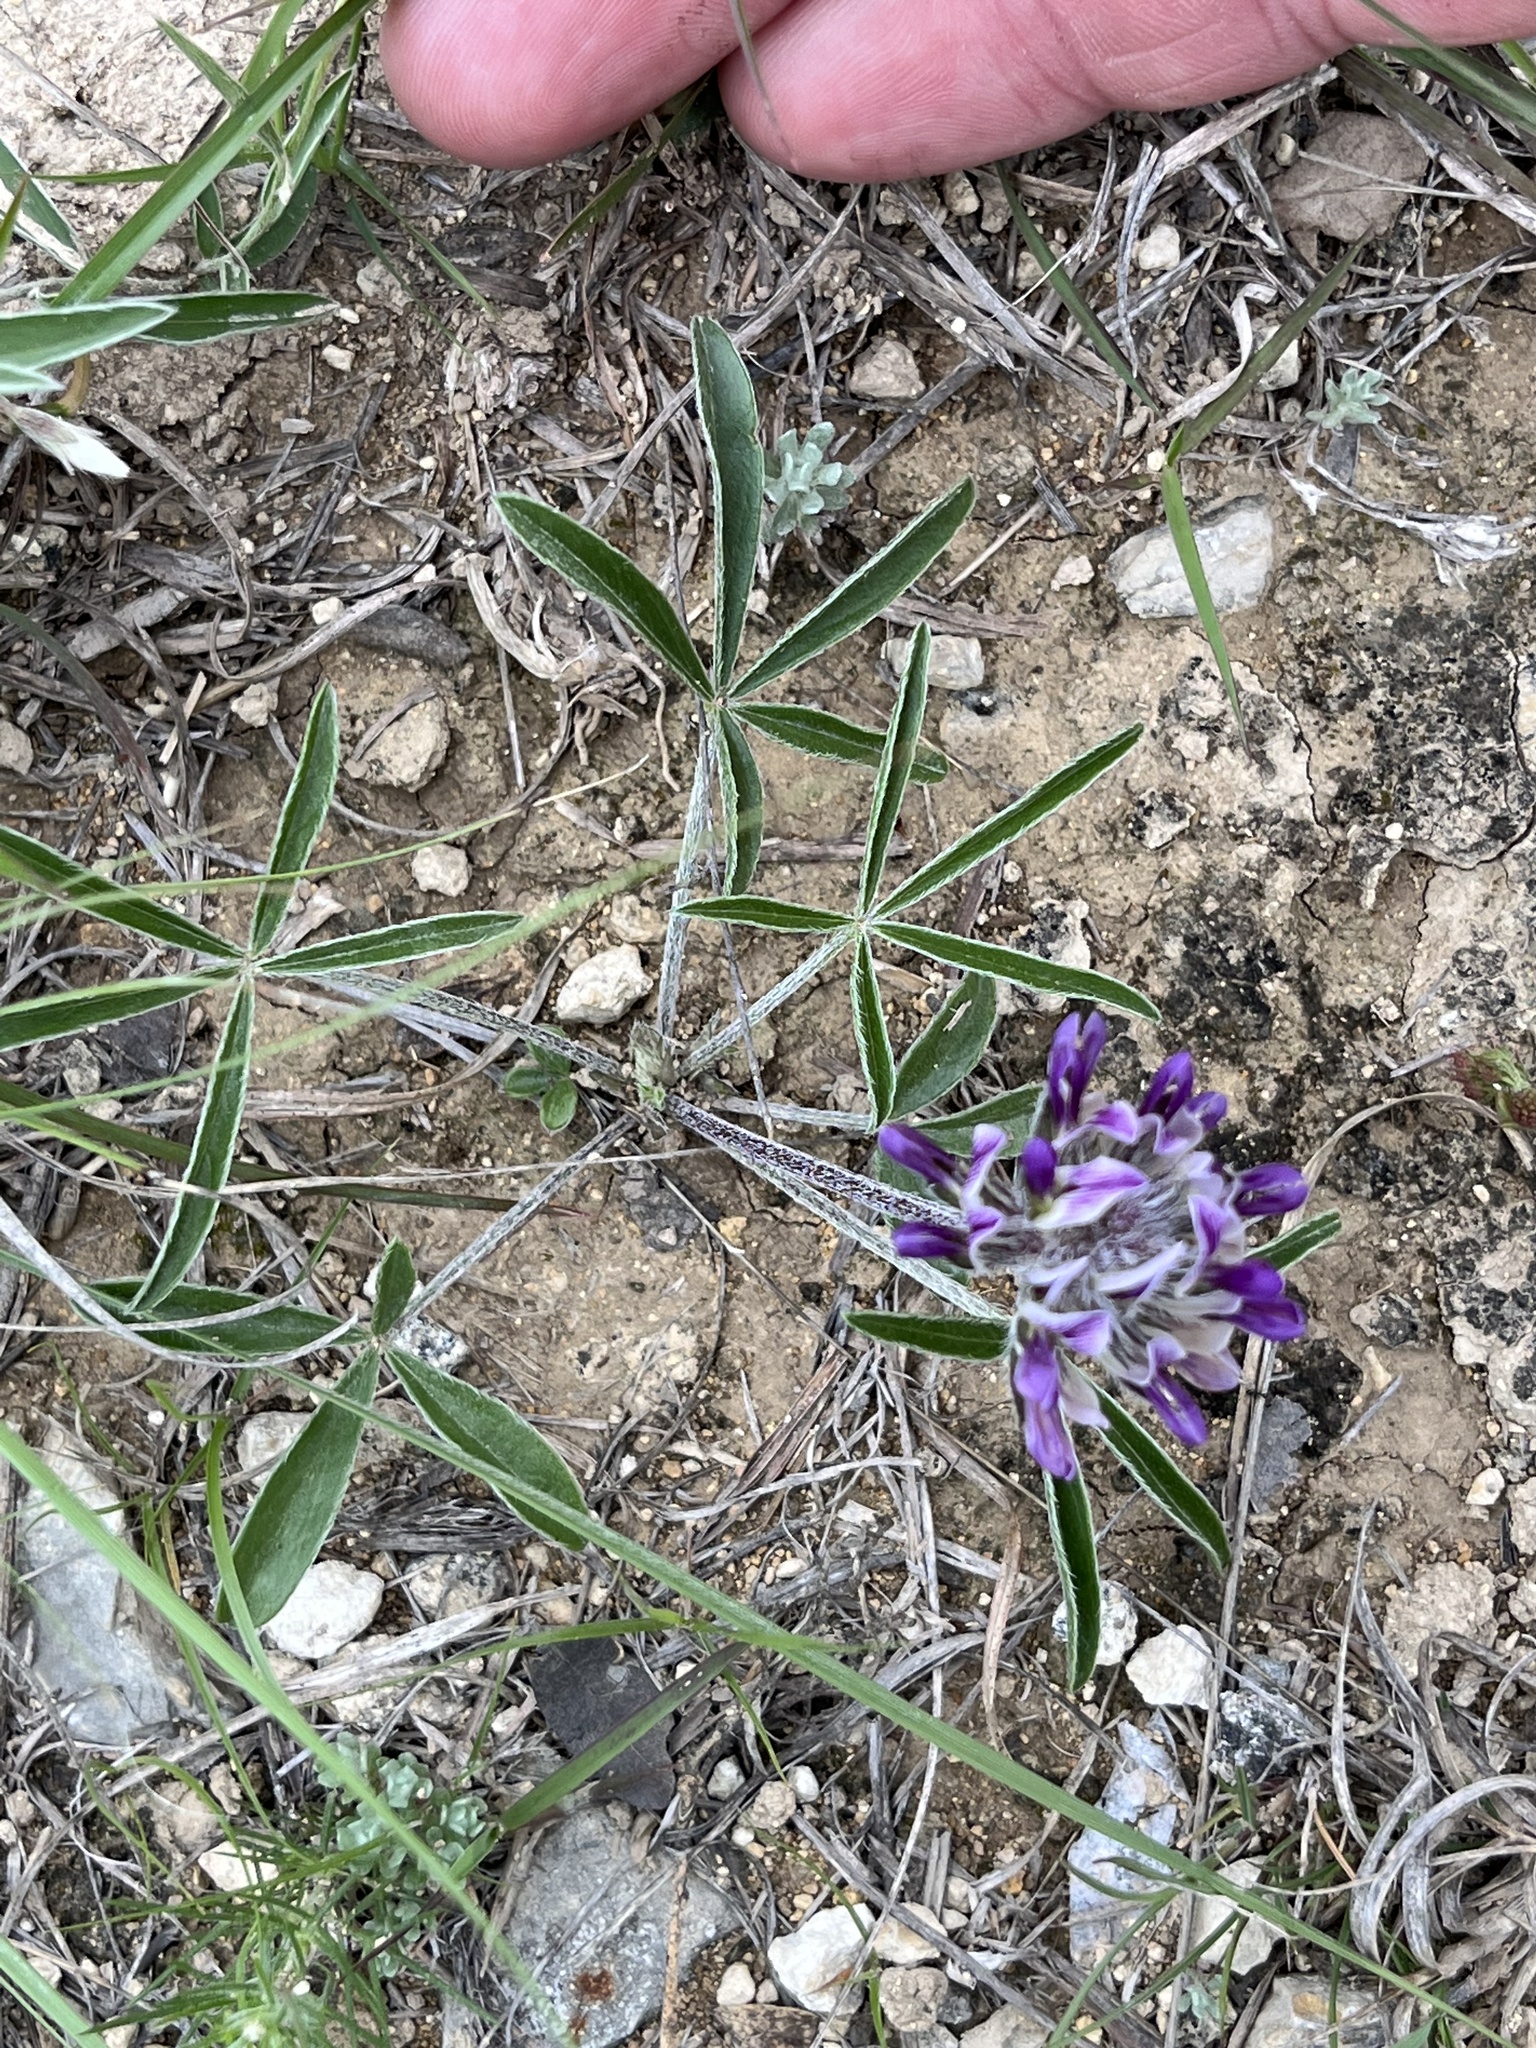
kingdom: Plantae
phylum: Tracheophyta
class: Magnoliopsida
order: Fabales
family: Fabaceae
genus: Pediomelum
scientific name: Pediomelum hypogaeum
